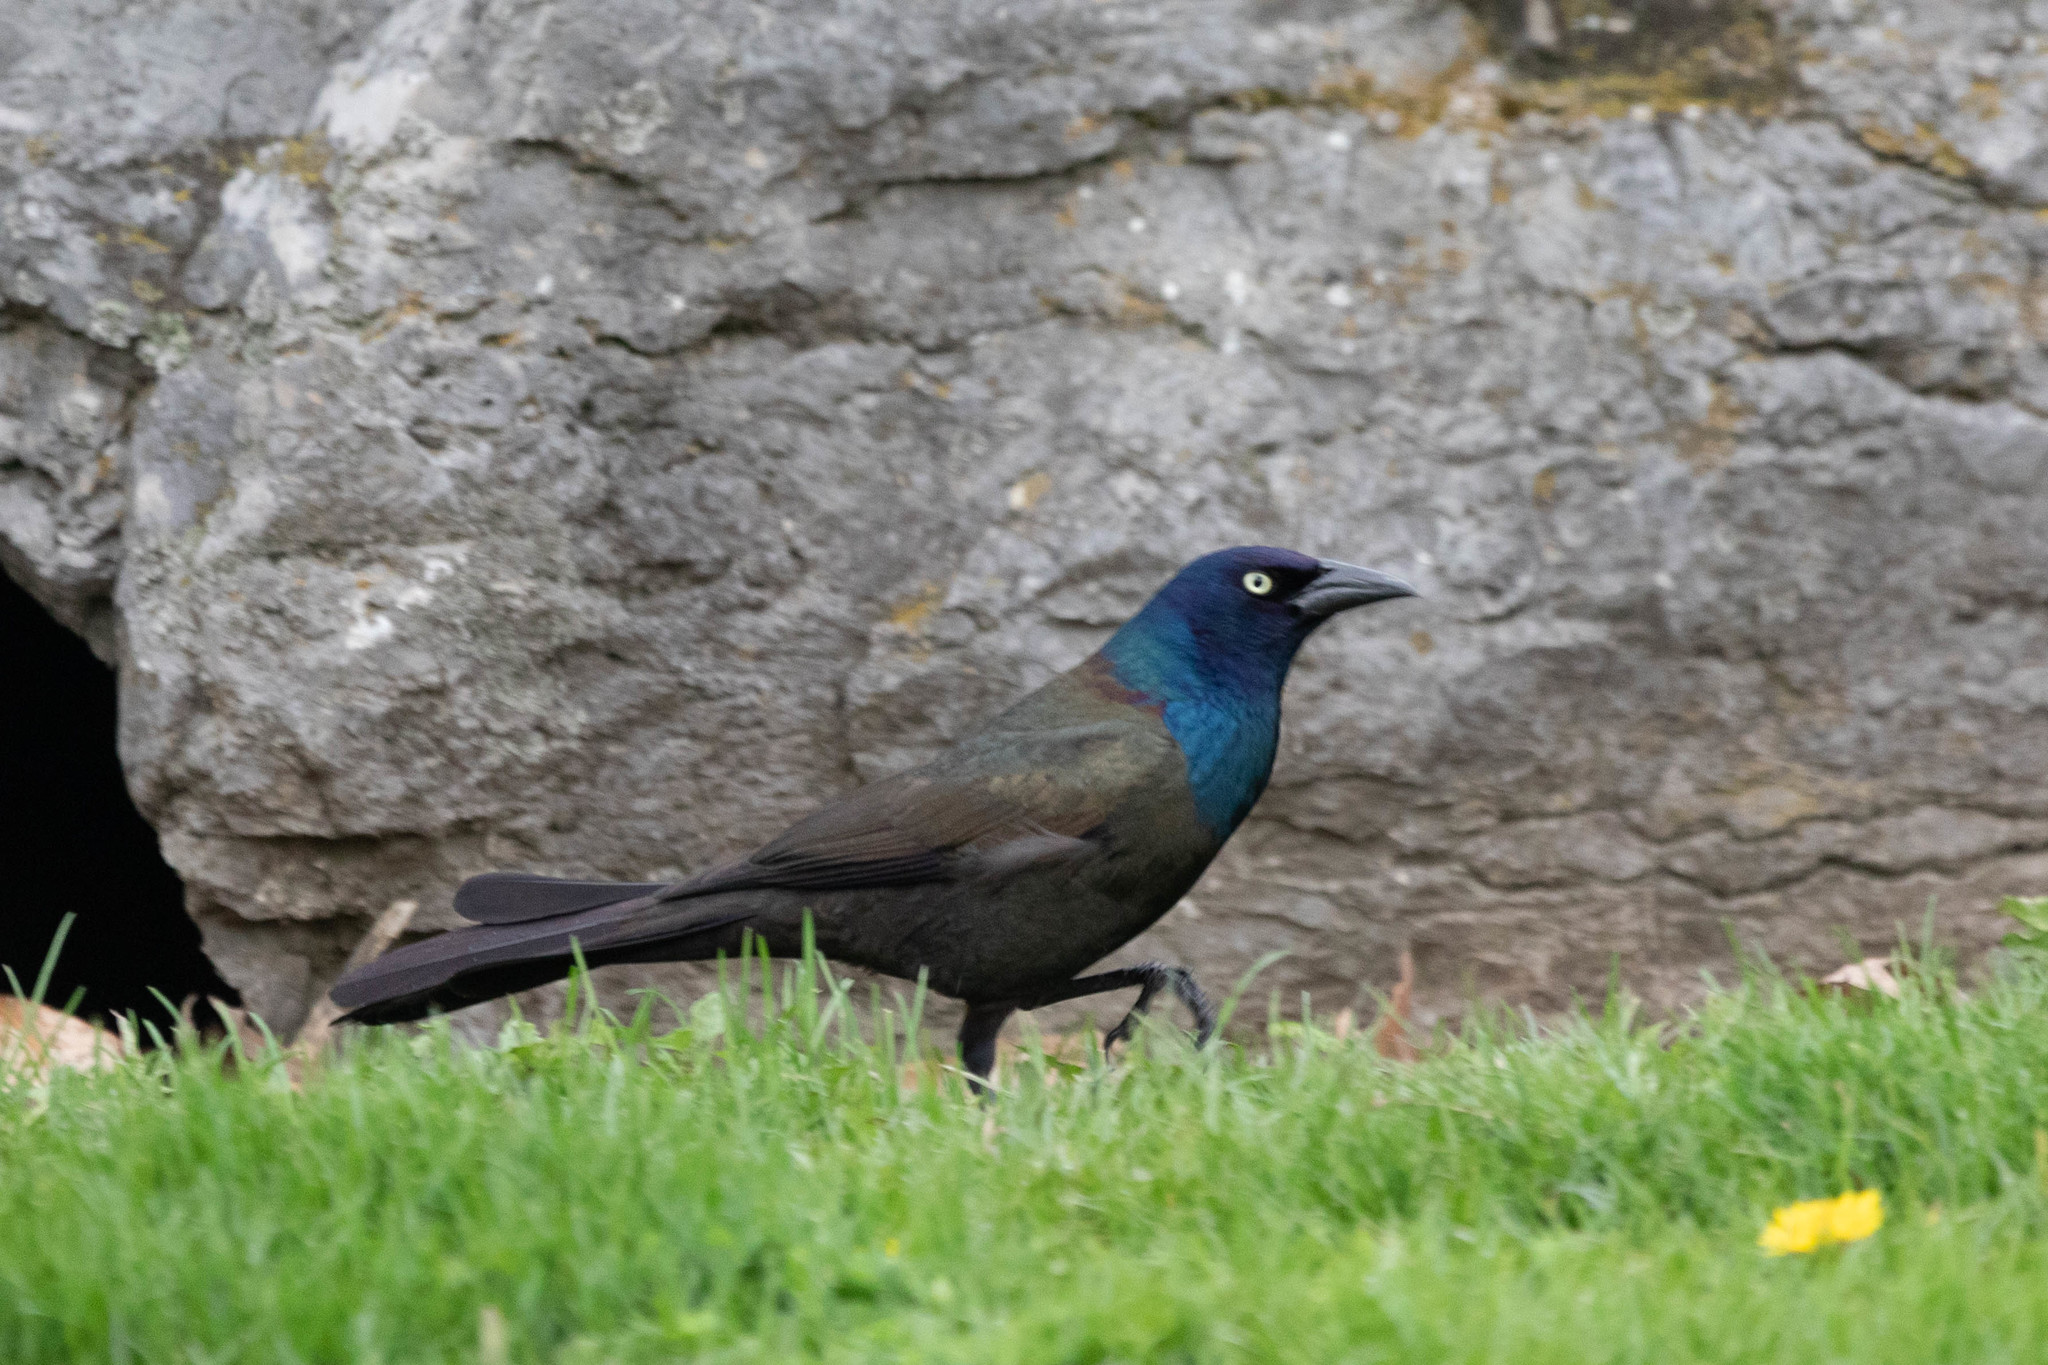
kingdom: Animalia
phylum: Chordata
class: Aves
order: Passeriformes
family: Icteridae
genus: Quiscalus
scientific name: Quiscalus quiscula
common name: Common grackle
